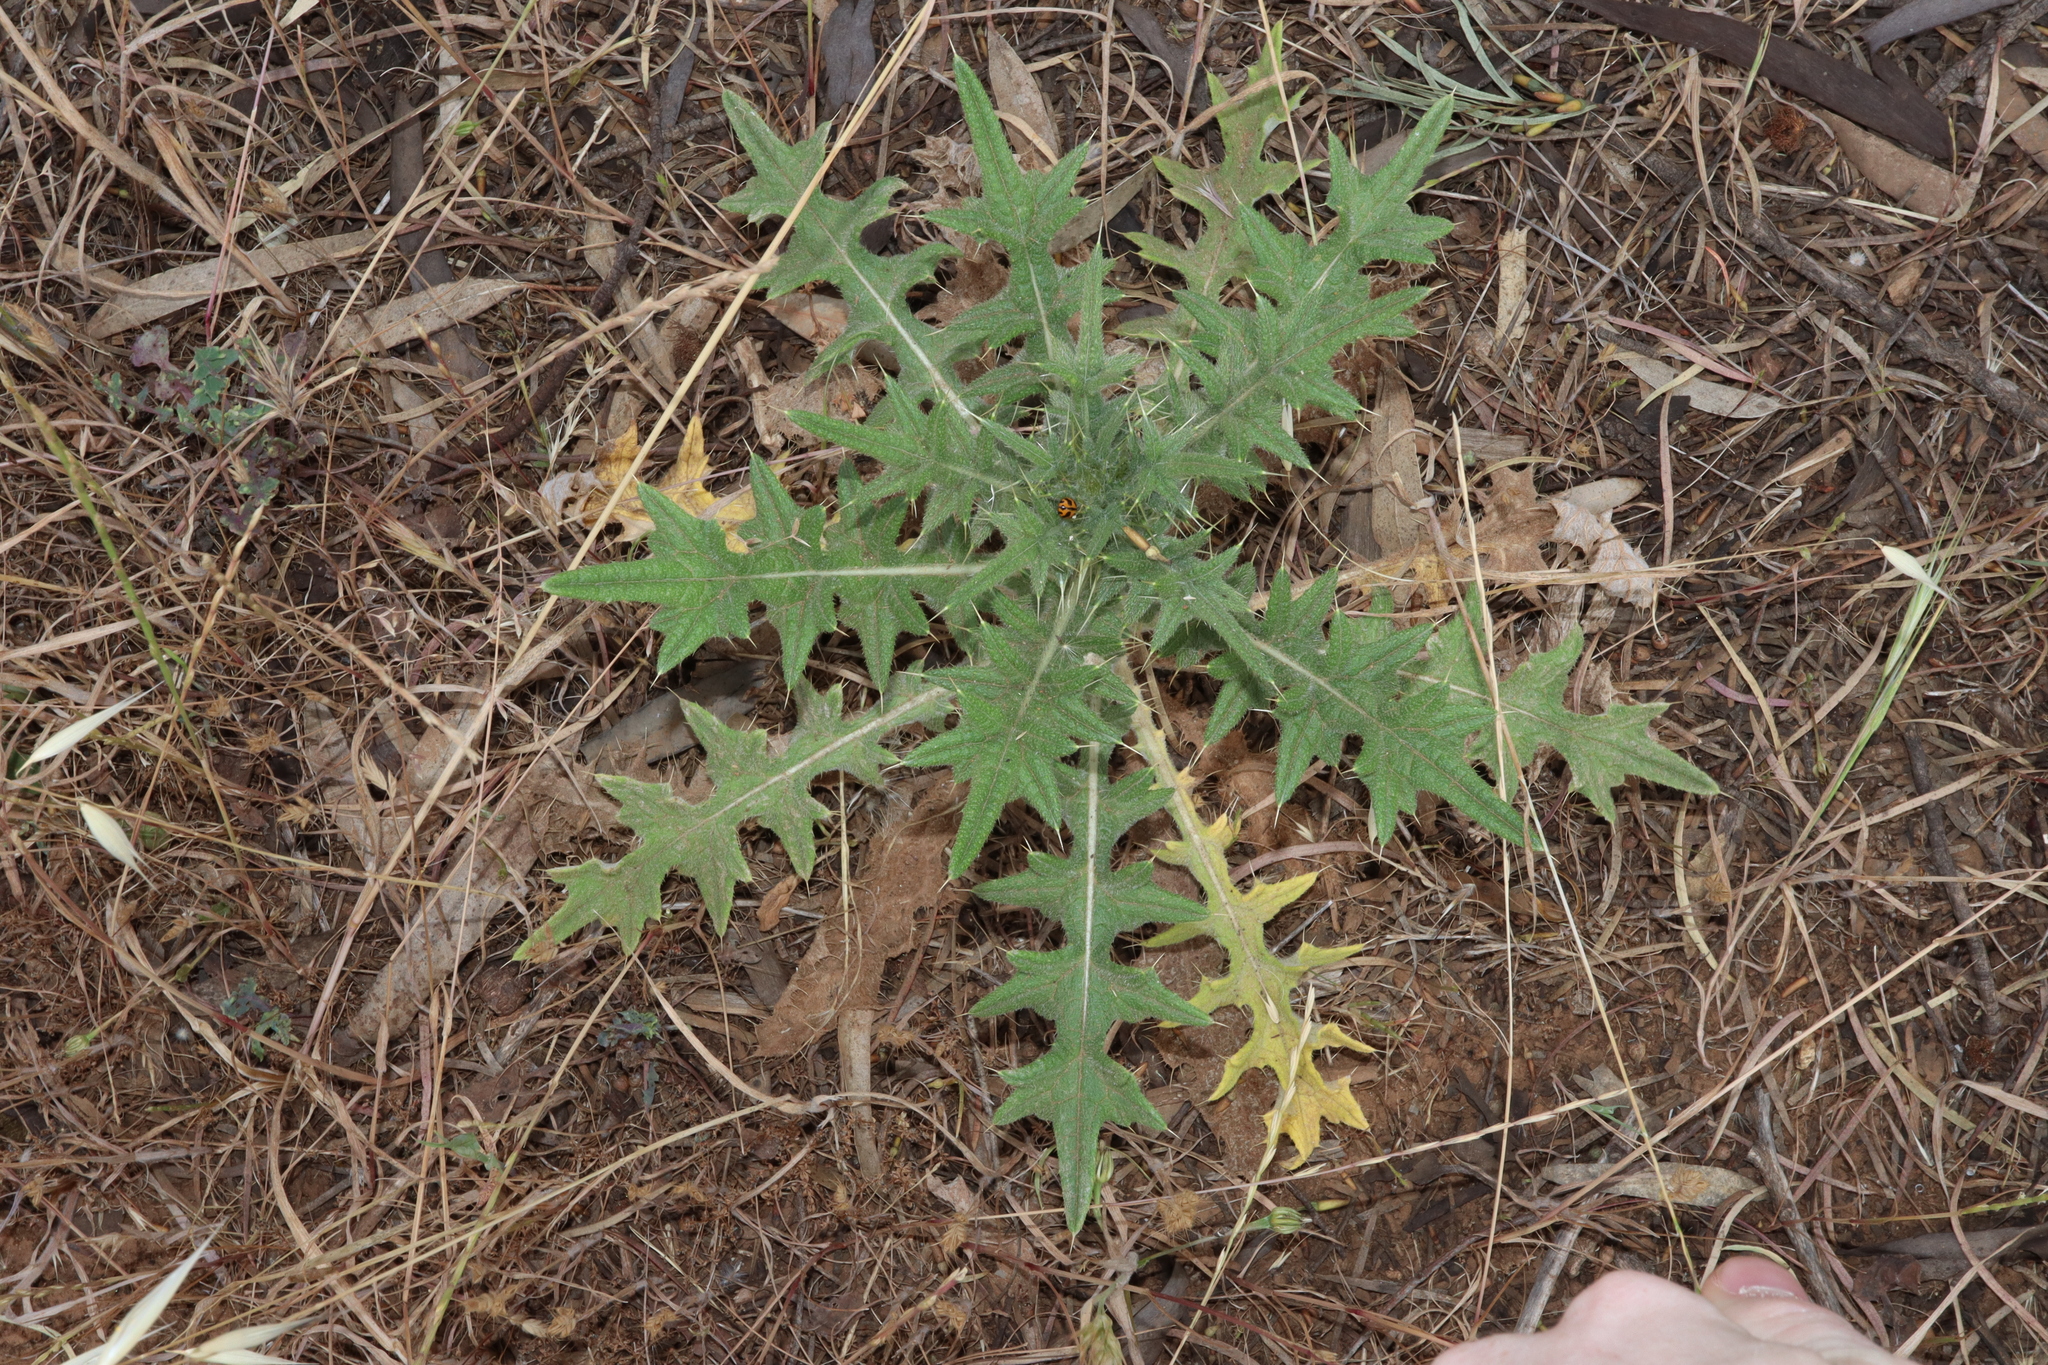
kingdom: Plantae
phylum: Tracheophyta
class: Magnoliopsida
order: Asterales
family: Asteraceae
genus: Cirsium
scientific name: Cirsium vulgare
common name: Bull thistle
